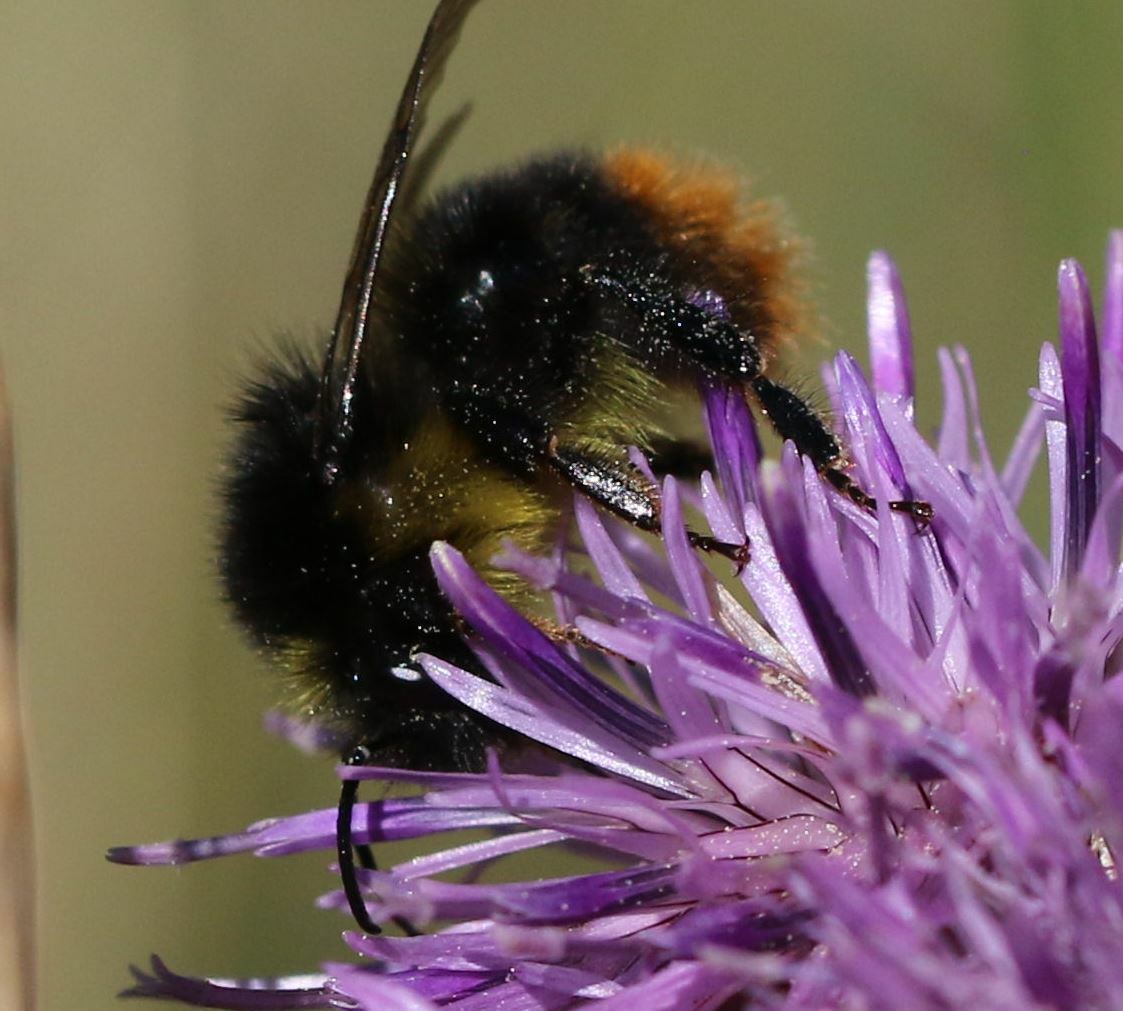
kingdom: Animalia
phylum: Arthropoda
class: Insecta
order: Hymenoptera
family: Apidae
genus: Bombus
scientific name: Bombus soroeensis
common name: Broken-belted humble-bee
